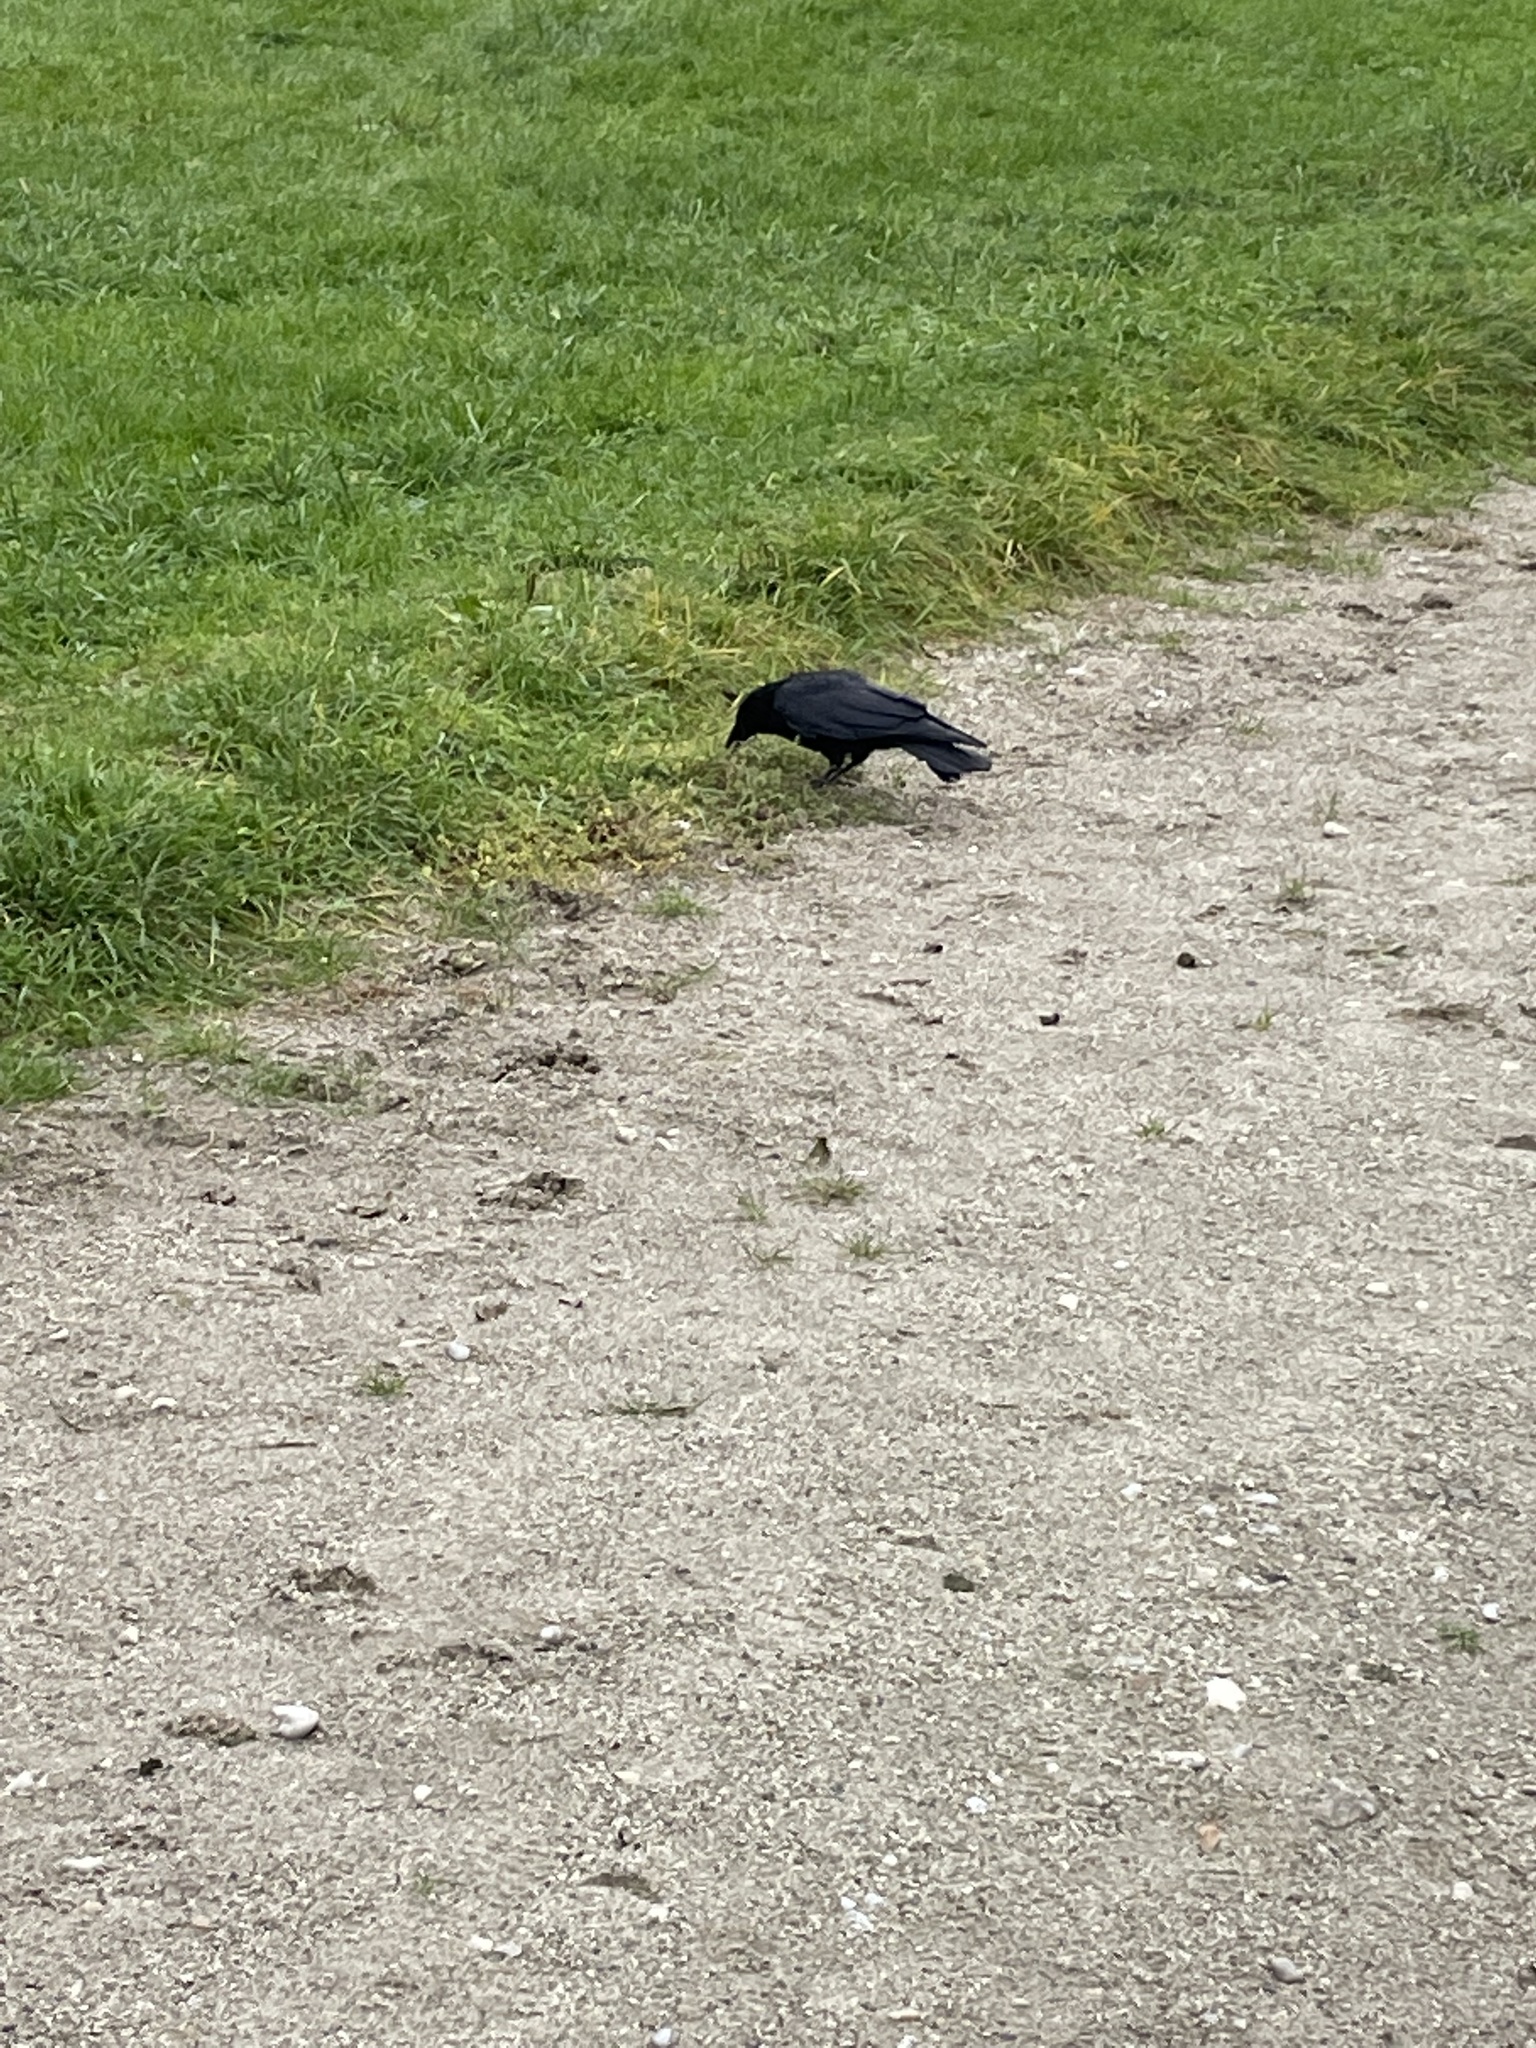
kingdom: Animalia
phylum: Chordata
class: Aves
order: Passeriformes
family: Corvidae
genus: Corvus
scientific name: Corvus corone
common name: Carrion crow
